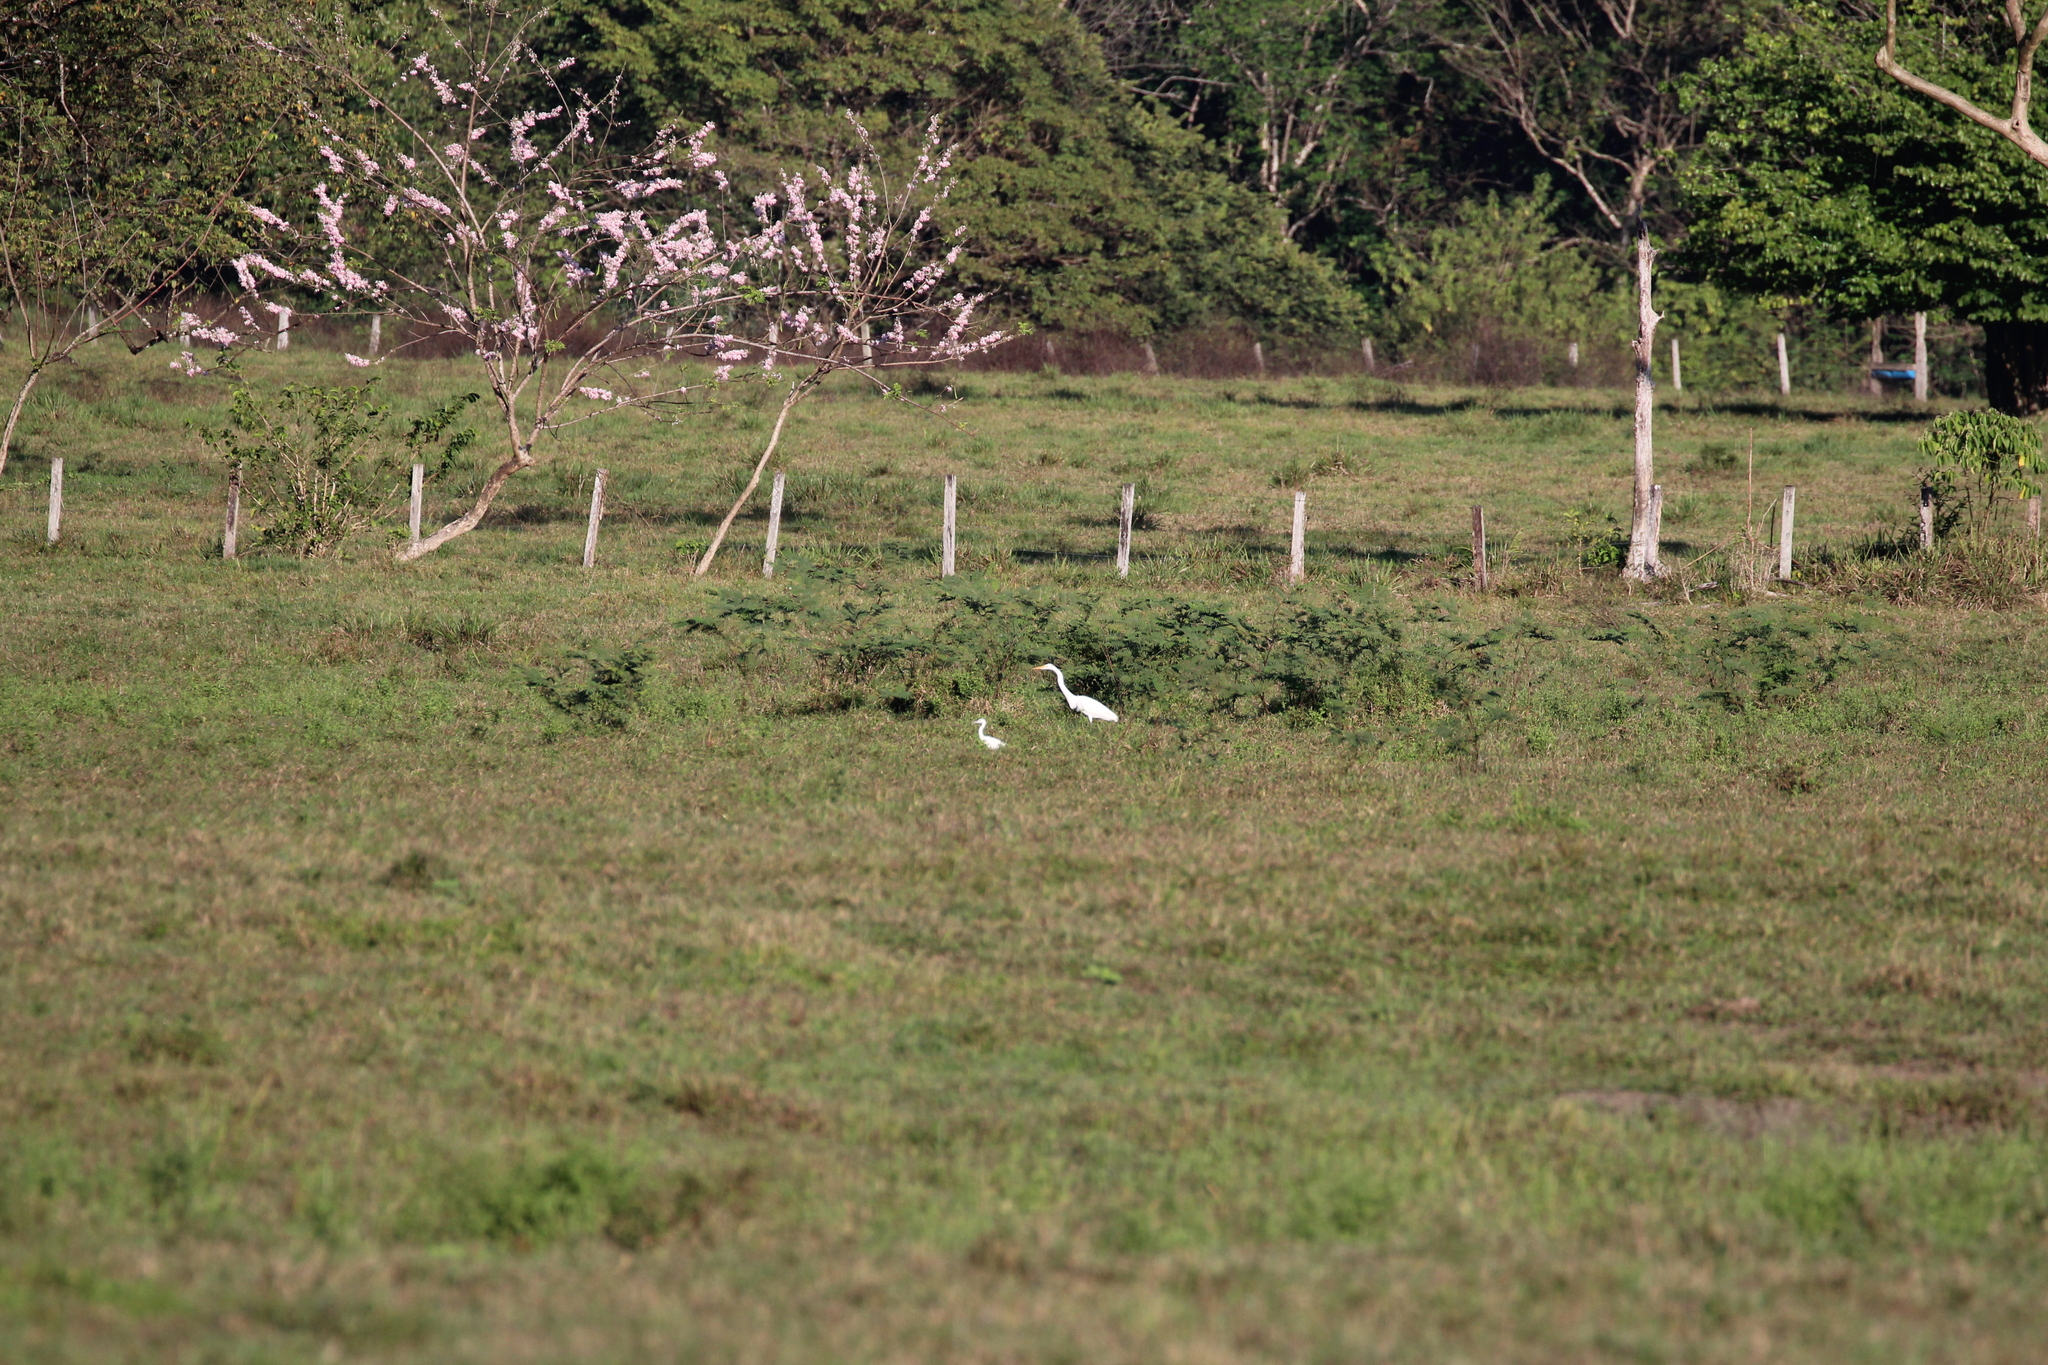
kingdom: Animalia
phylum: Chordata
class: Aves
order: Pelecaniformes
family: Ardeidae
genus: Ardea
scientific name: Ardea alba
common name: Great egret
